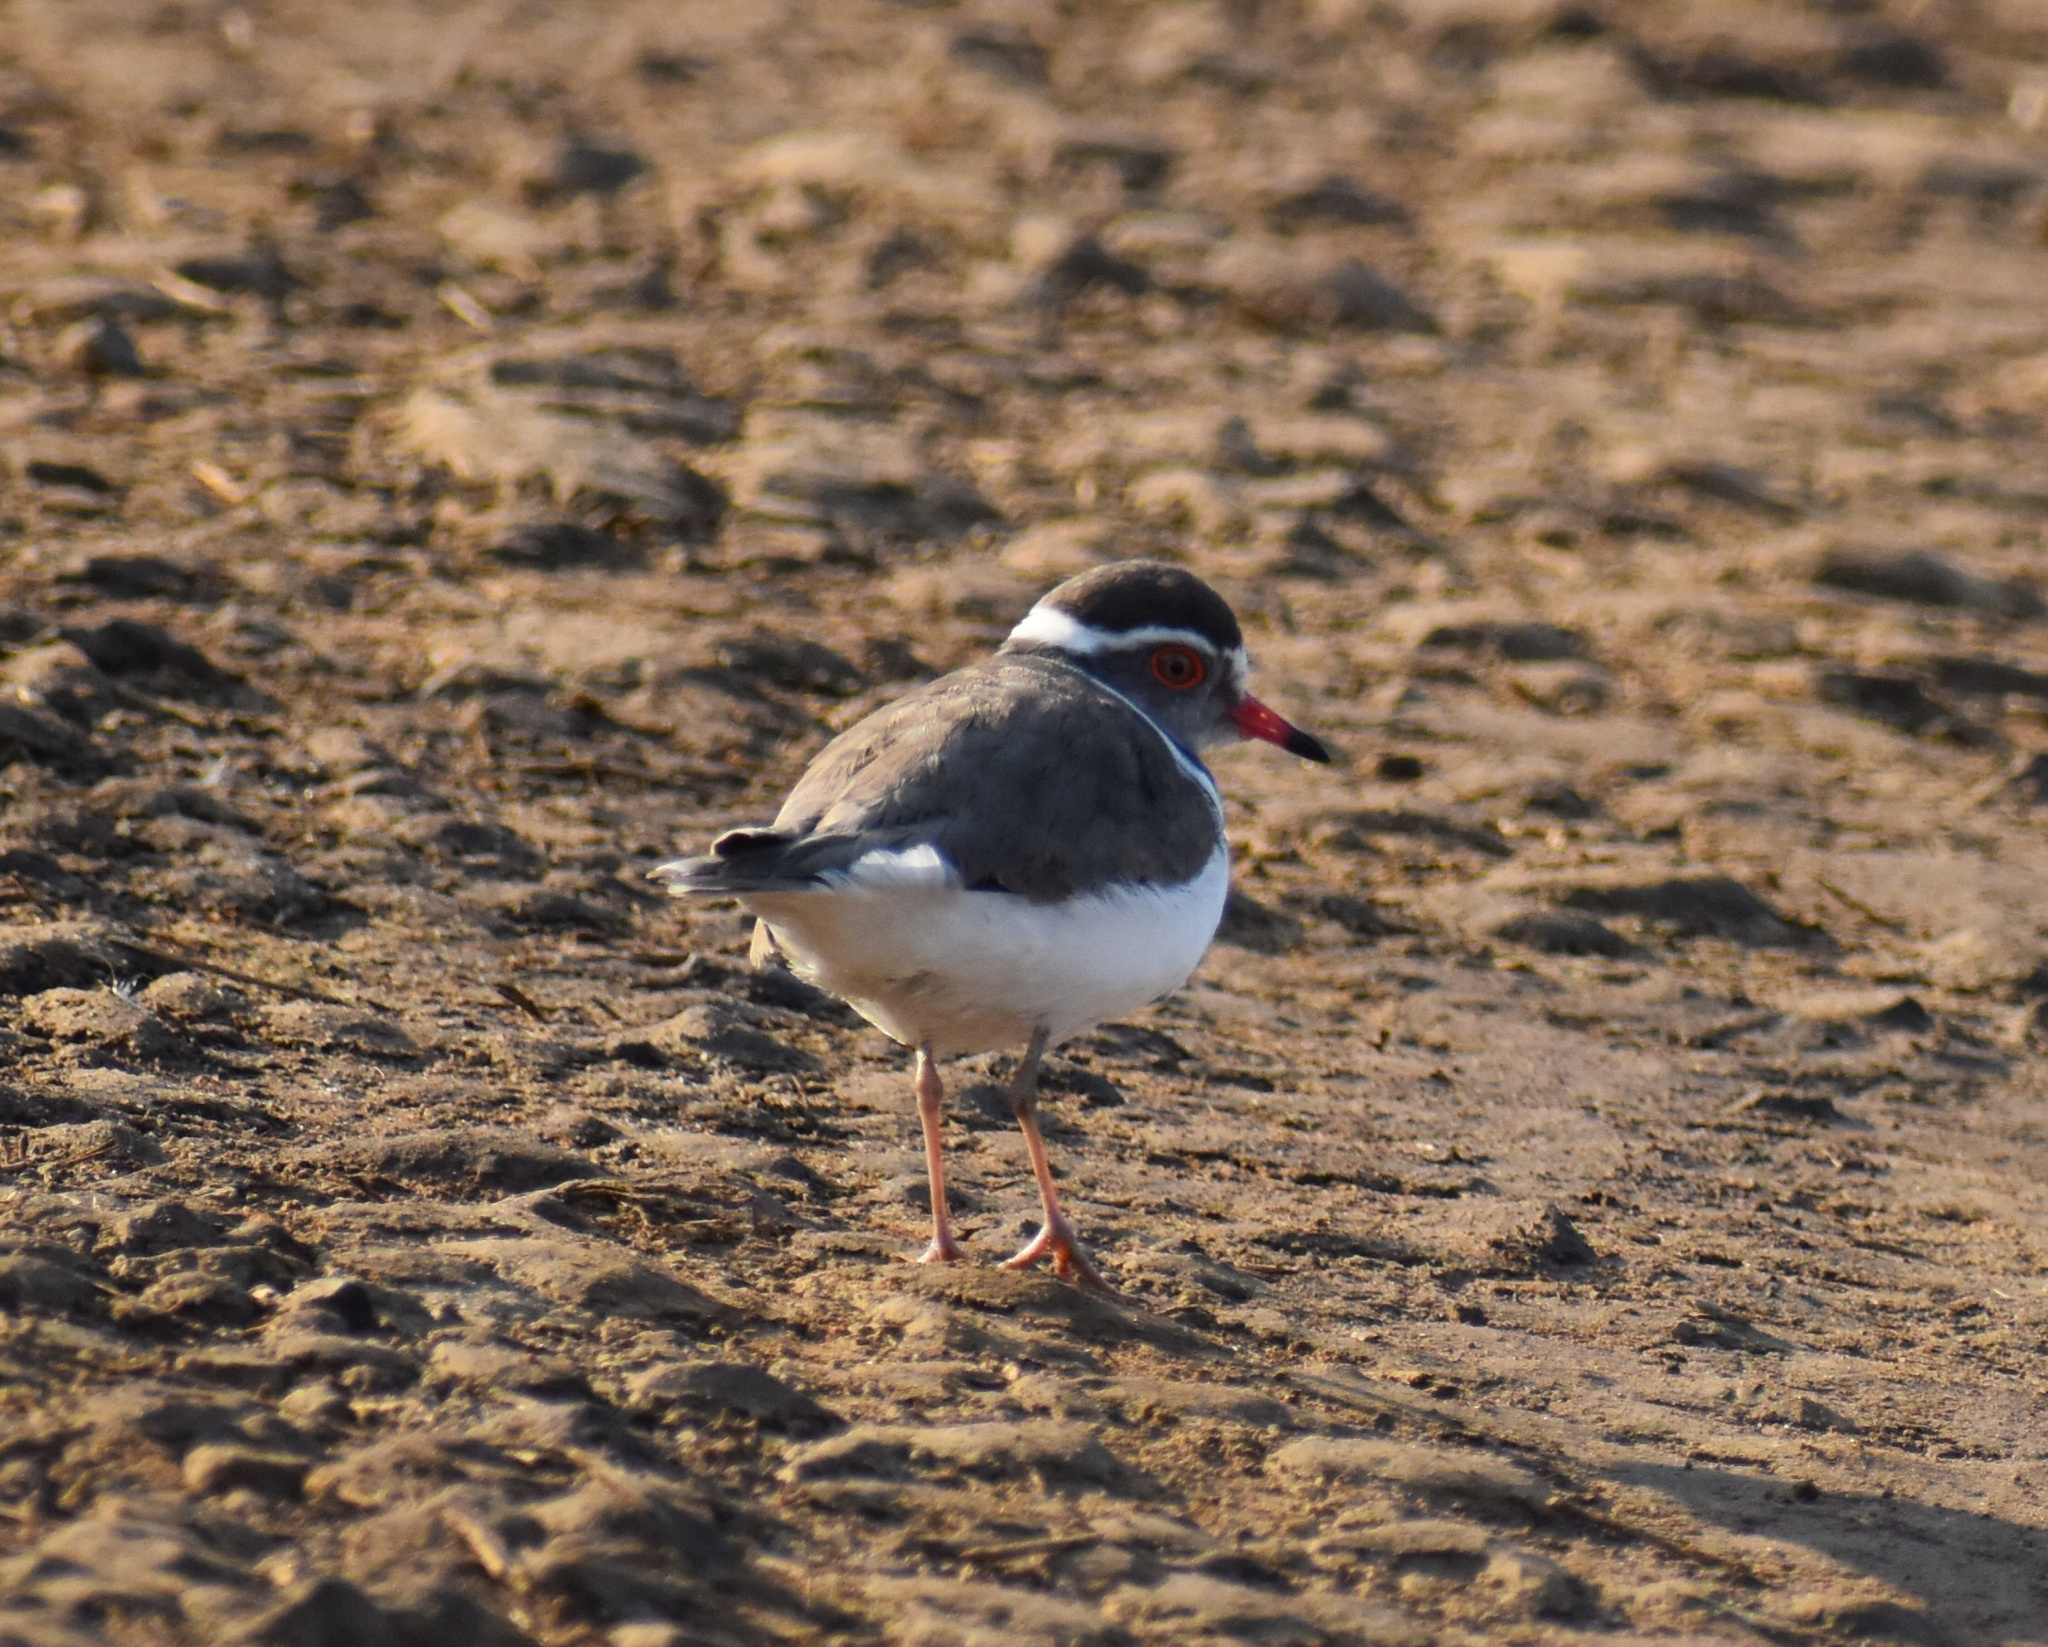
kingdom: Animalia
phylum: Chordata
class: Aves
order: Charadriiformes
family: Charadriidae
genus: Charadrius
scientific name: Charadrius tricollaris
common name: Three-banded plover
